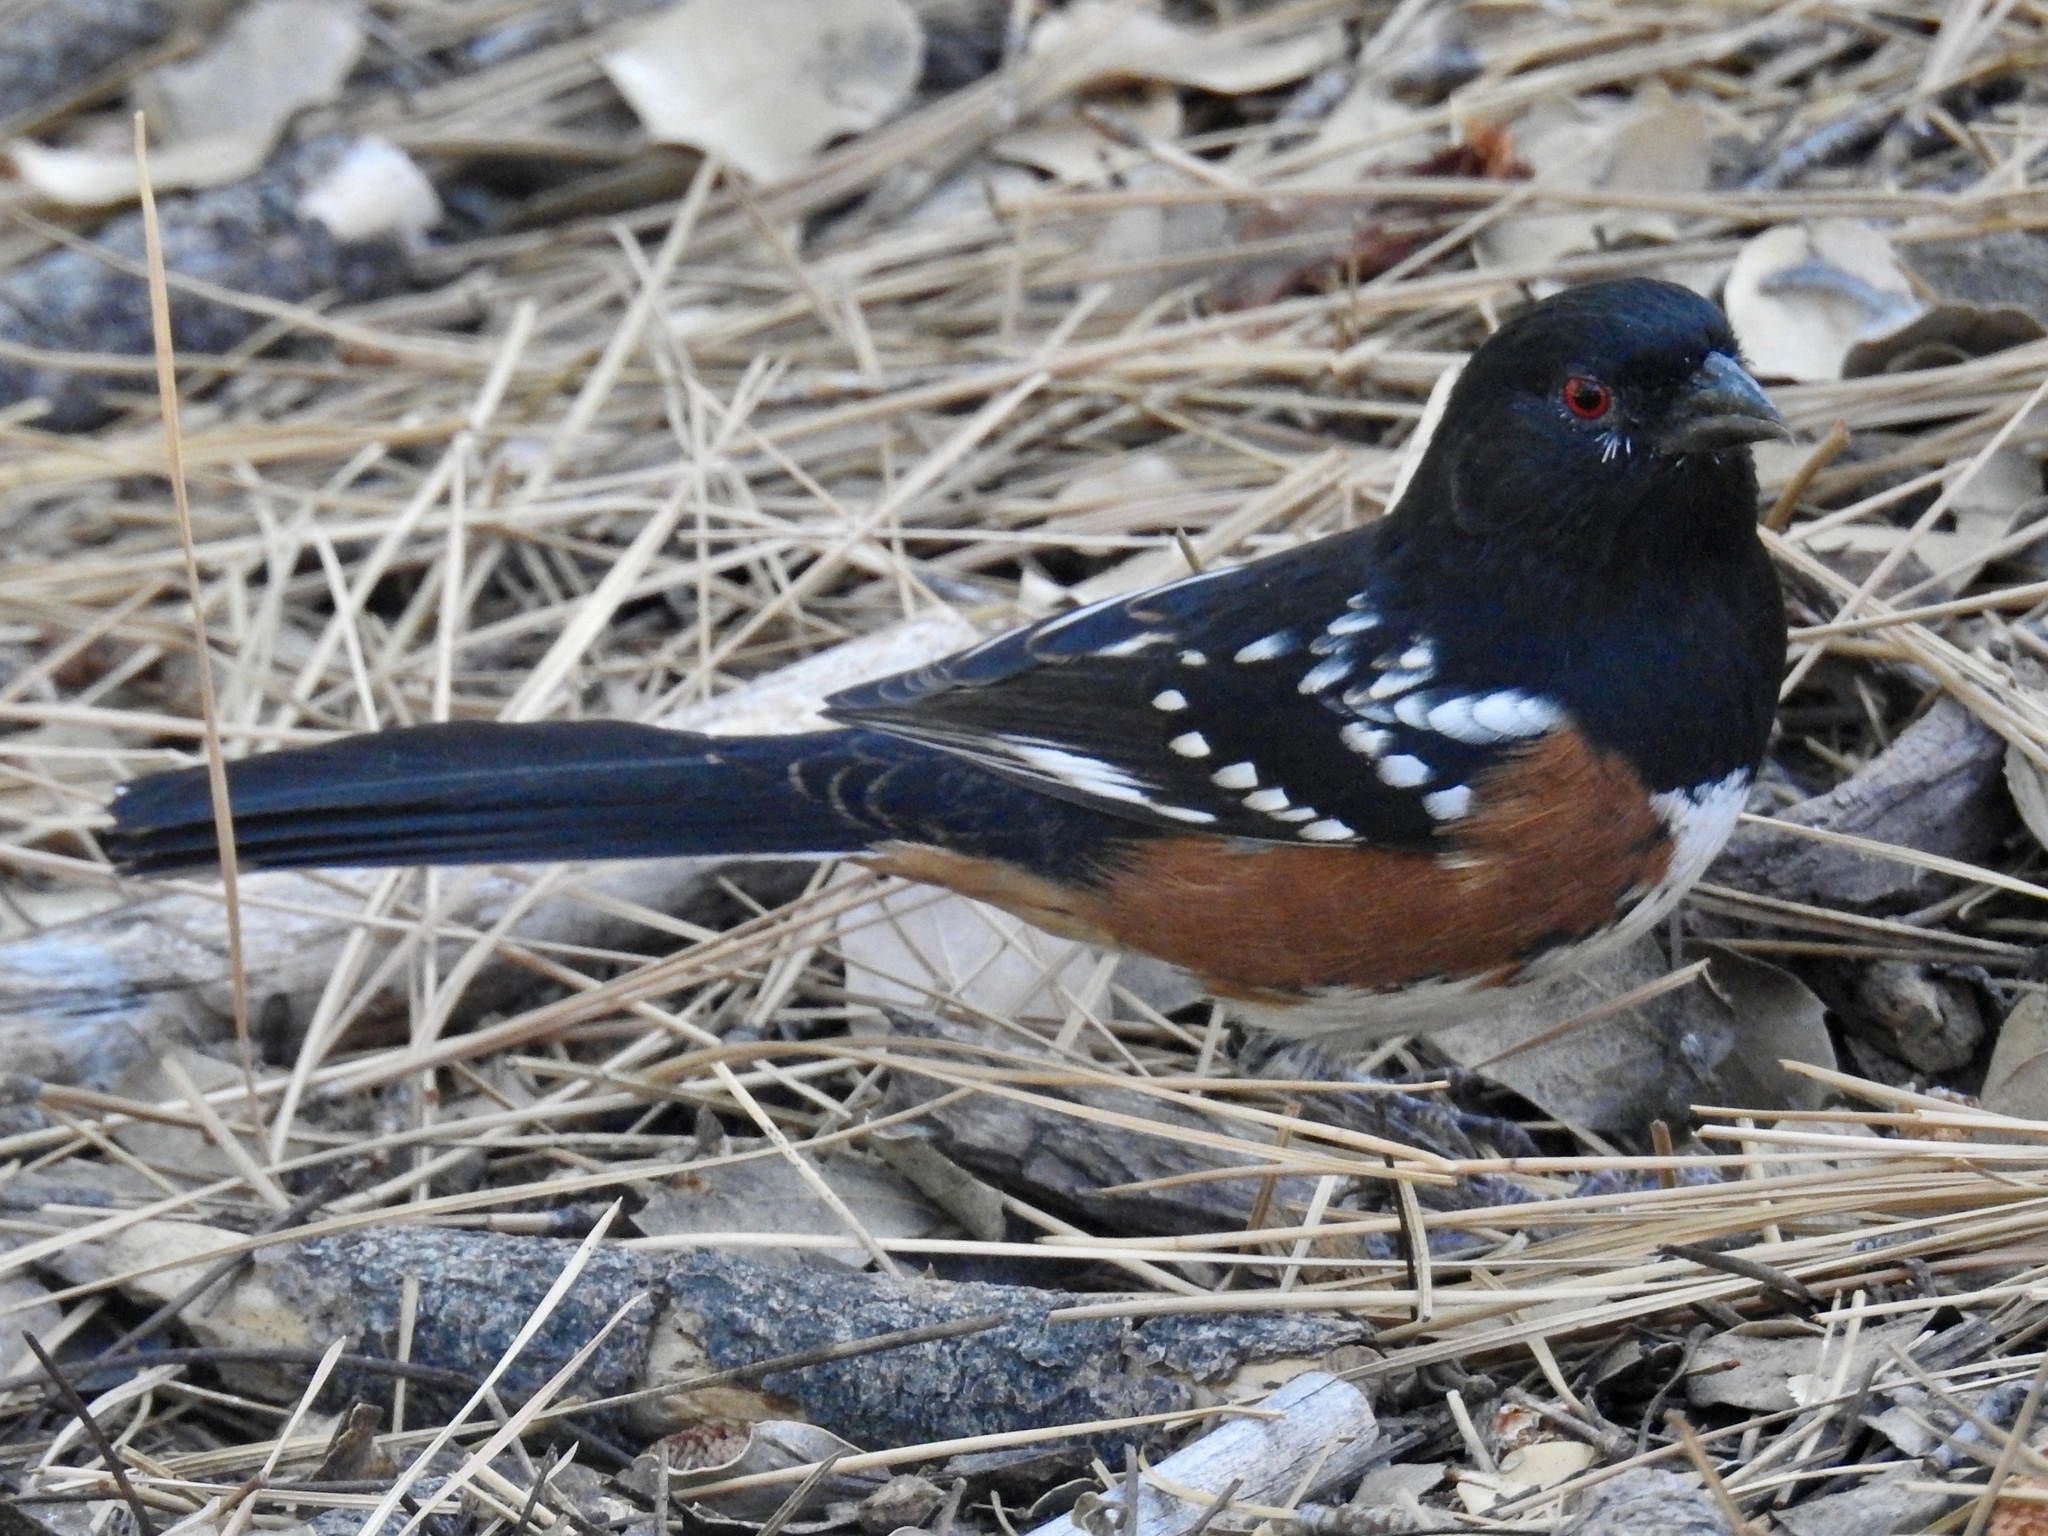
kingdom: Animalia
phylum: Chordata
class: Aves
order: Passeriformes
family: Passerellidae
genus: Pipilo
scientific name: Pipilo maculatus
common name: Spotted towhee
